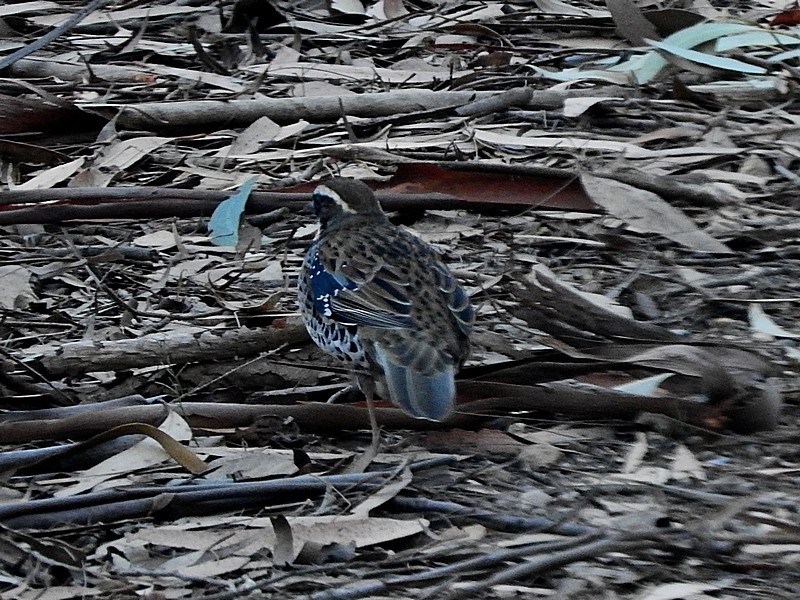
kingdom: Animalia
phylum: Chordata
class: Aves
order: Passeriformes
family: Psophodidae
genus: Cinclosoma
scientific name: Cinclosoma punctatum
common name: Spotted quail-thrush
